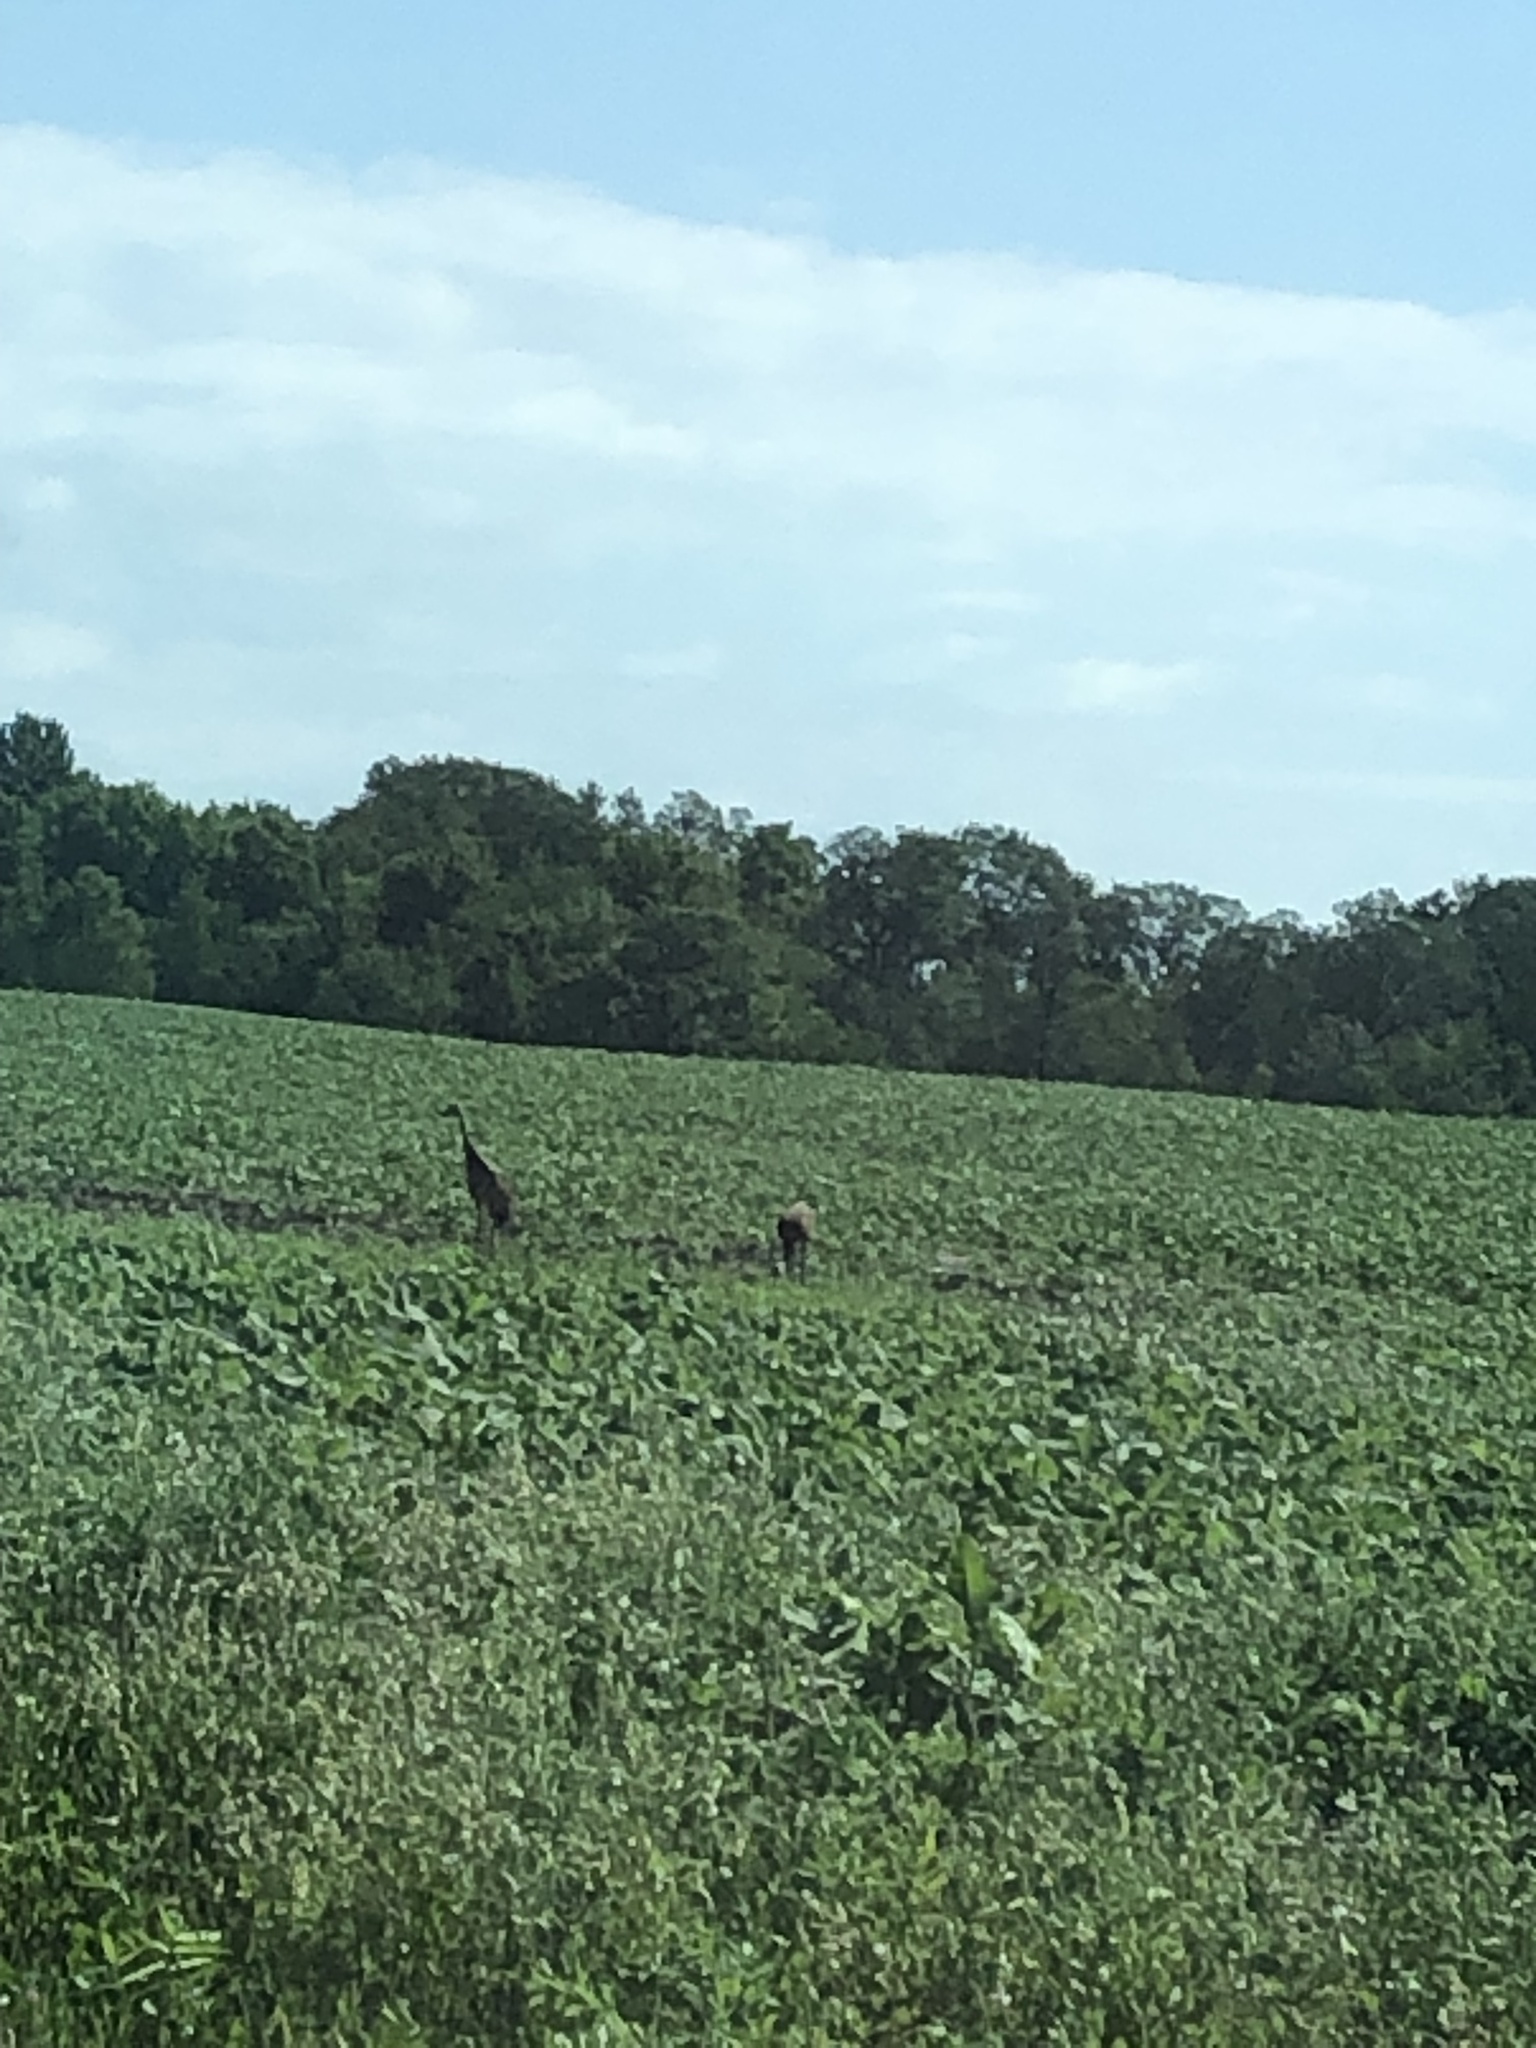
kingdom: Animalia
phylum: Chordata
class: Aves
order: Gruiformes
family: Gruidae
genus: Grus
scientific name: Grus canadensis
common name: Sandhill crane
